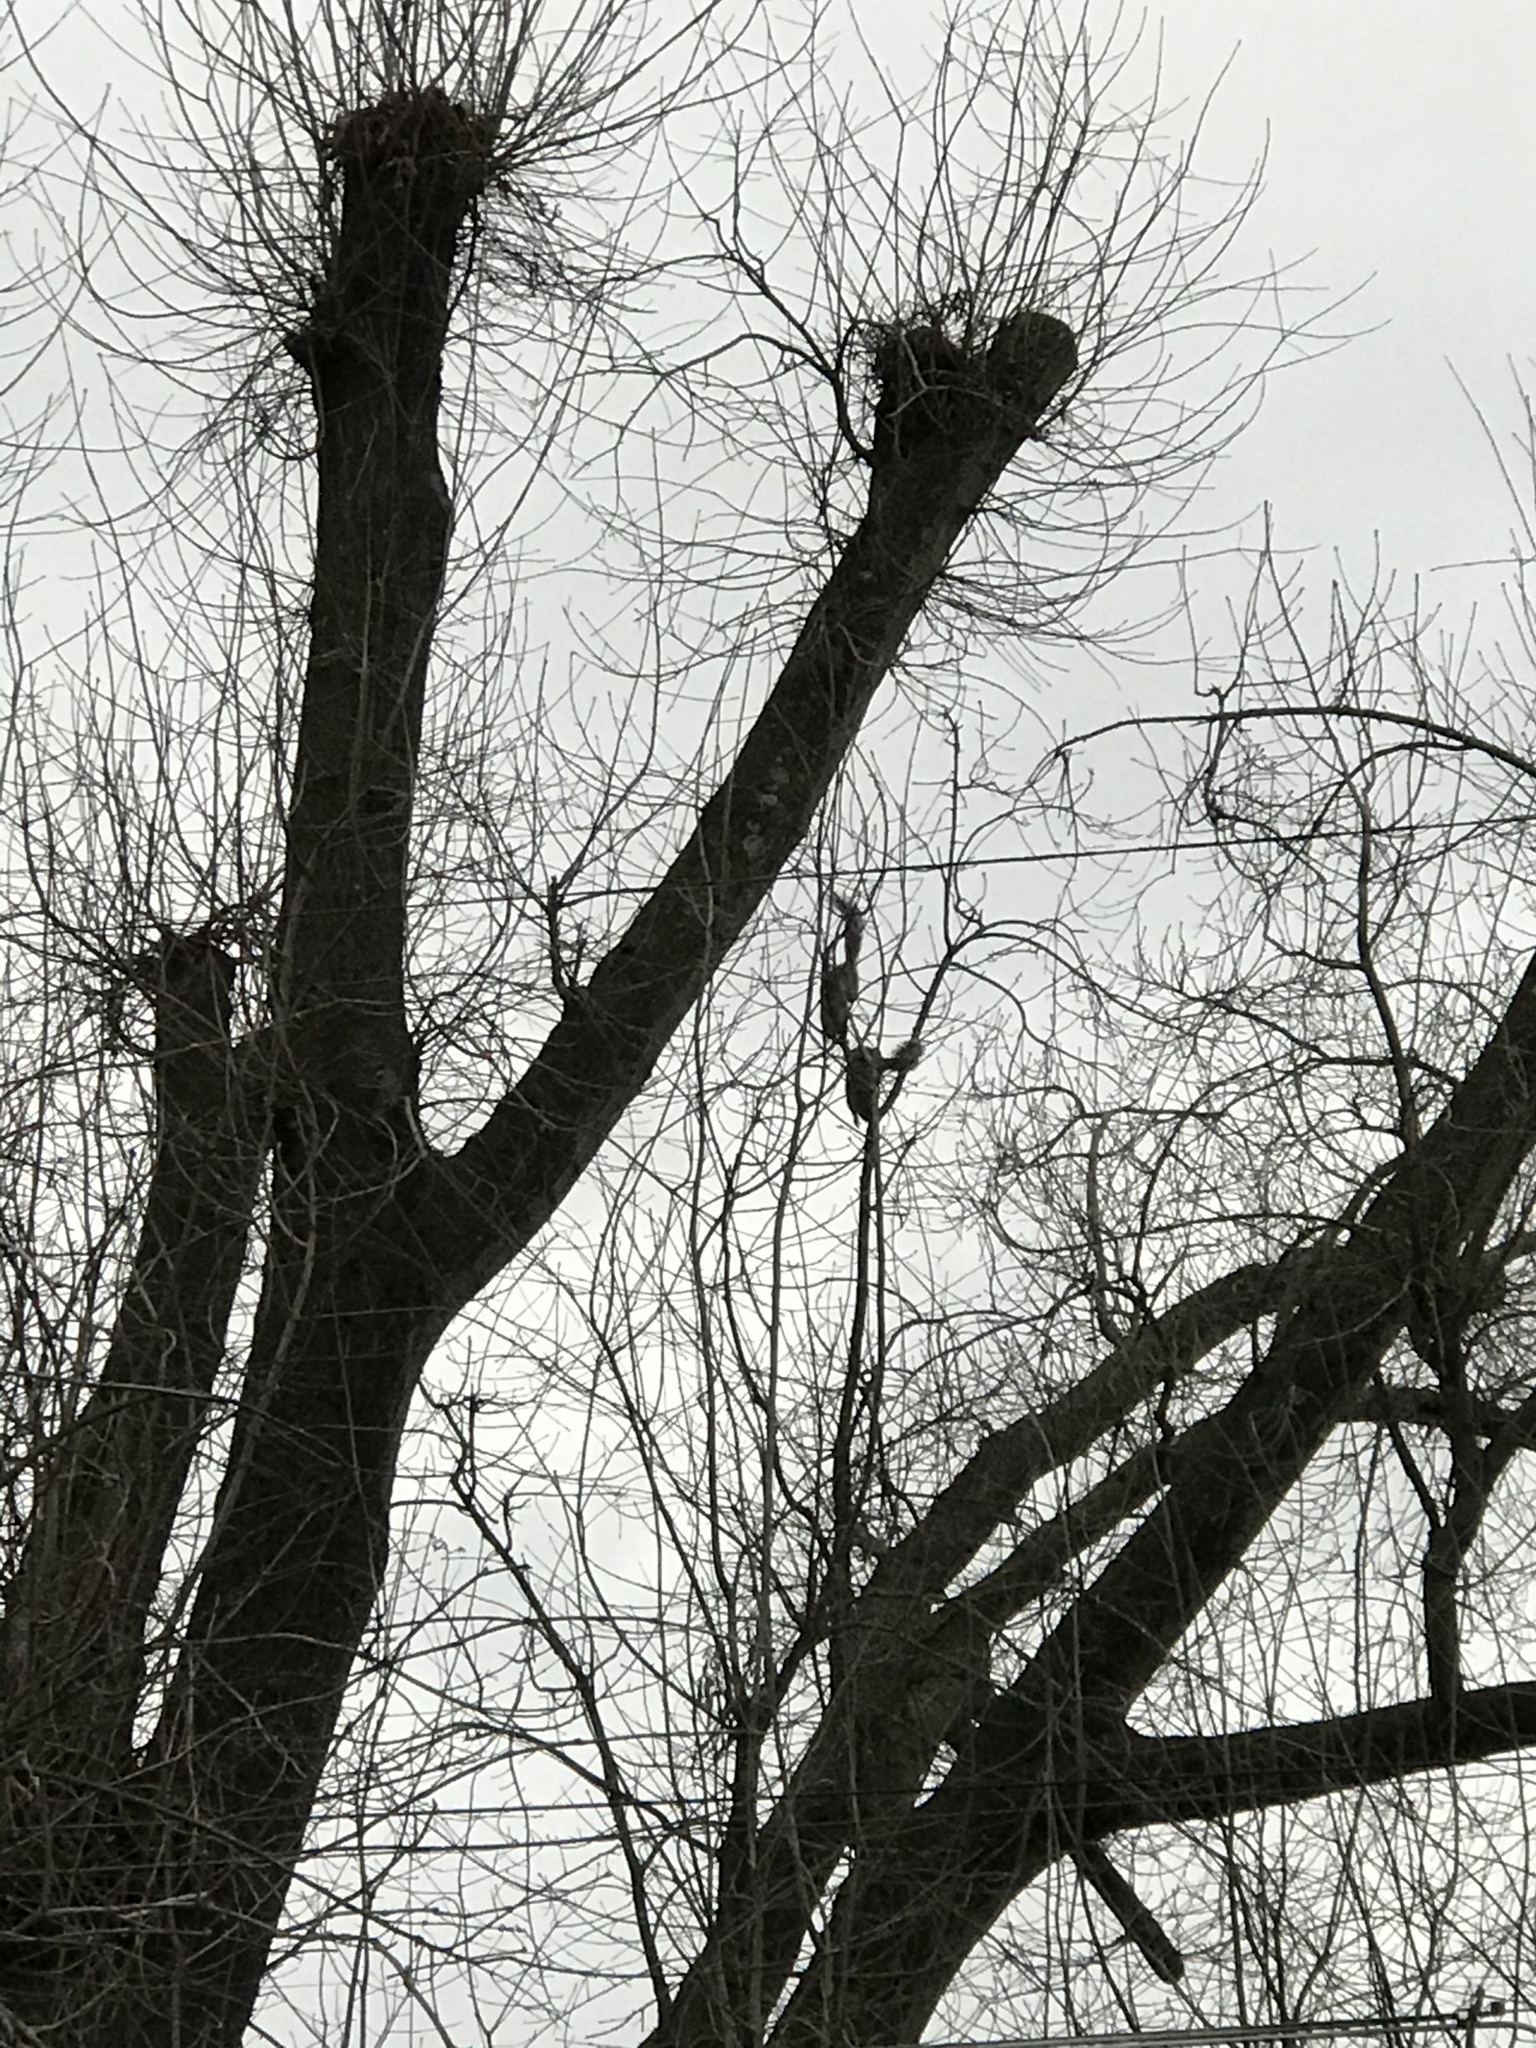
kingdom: Animalia
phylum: Chordata
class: Mammalia
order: Rodentia
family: Sciuridae
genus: Sciurus
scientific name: Sciurus carolinensis
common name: Eastern gray squirrel
